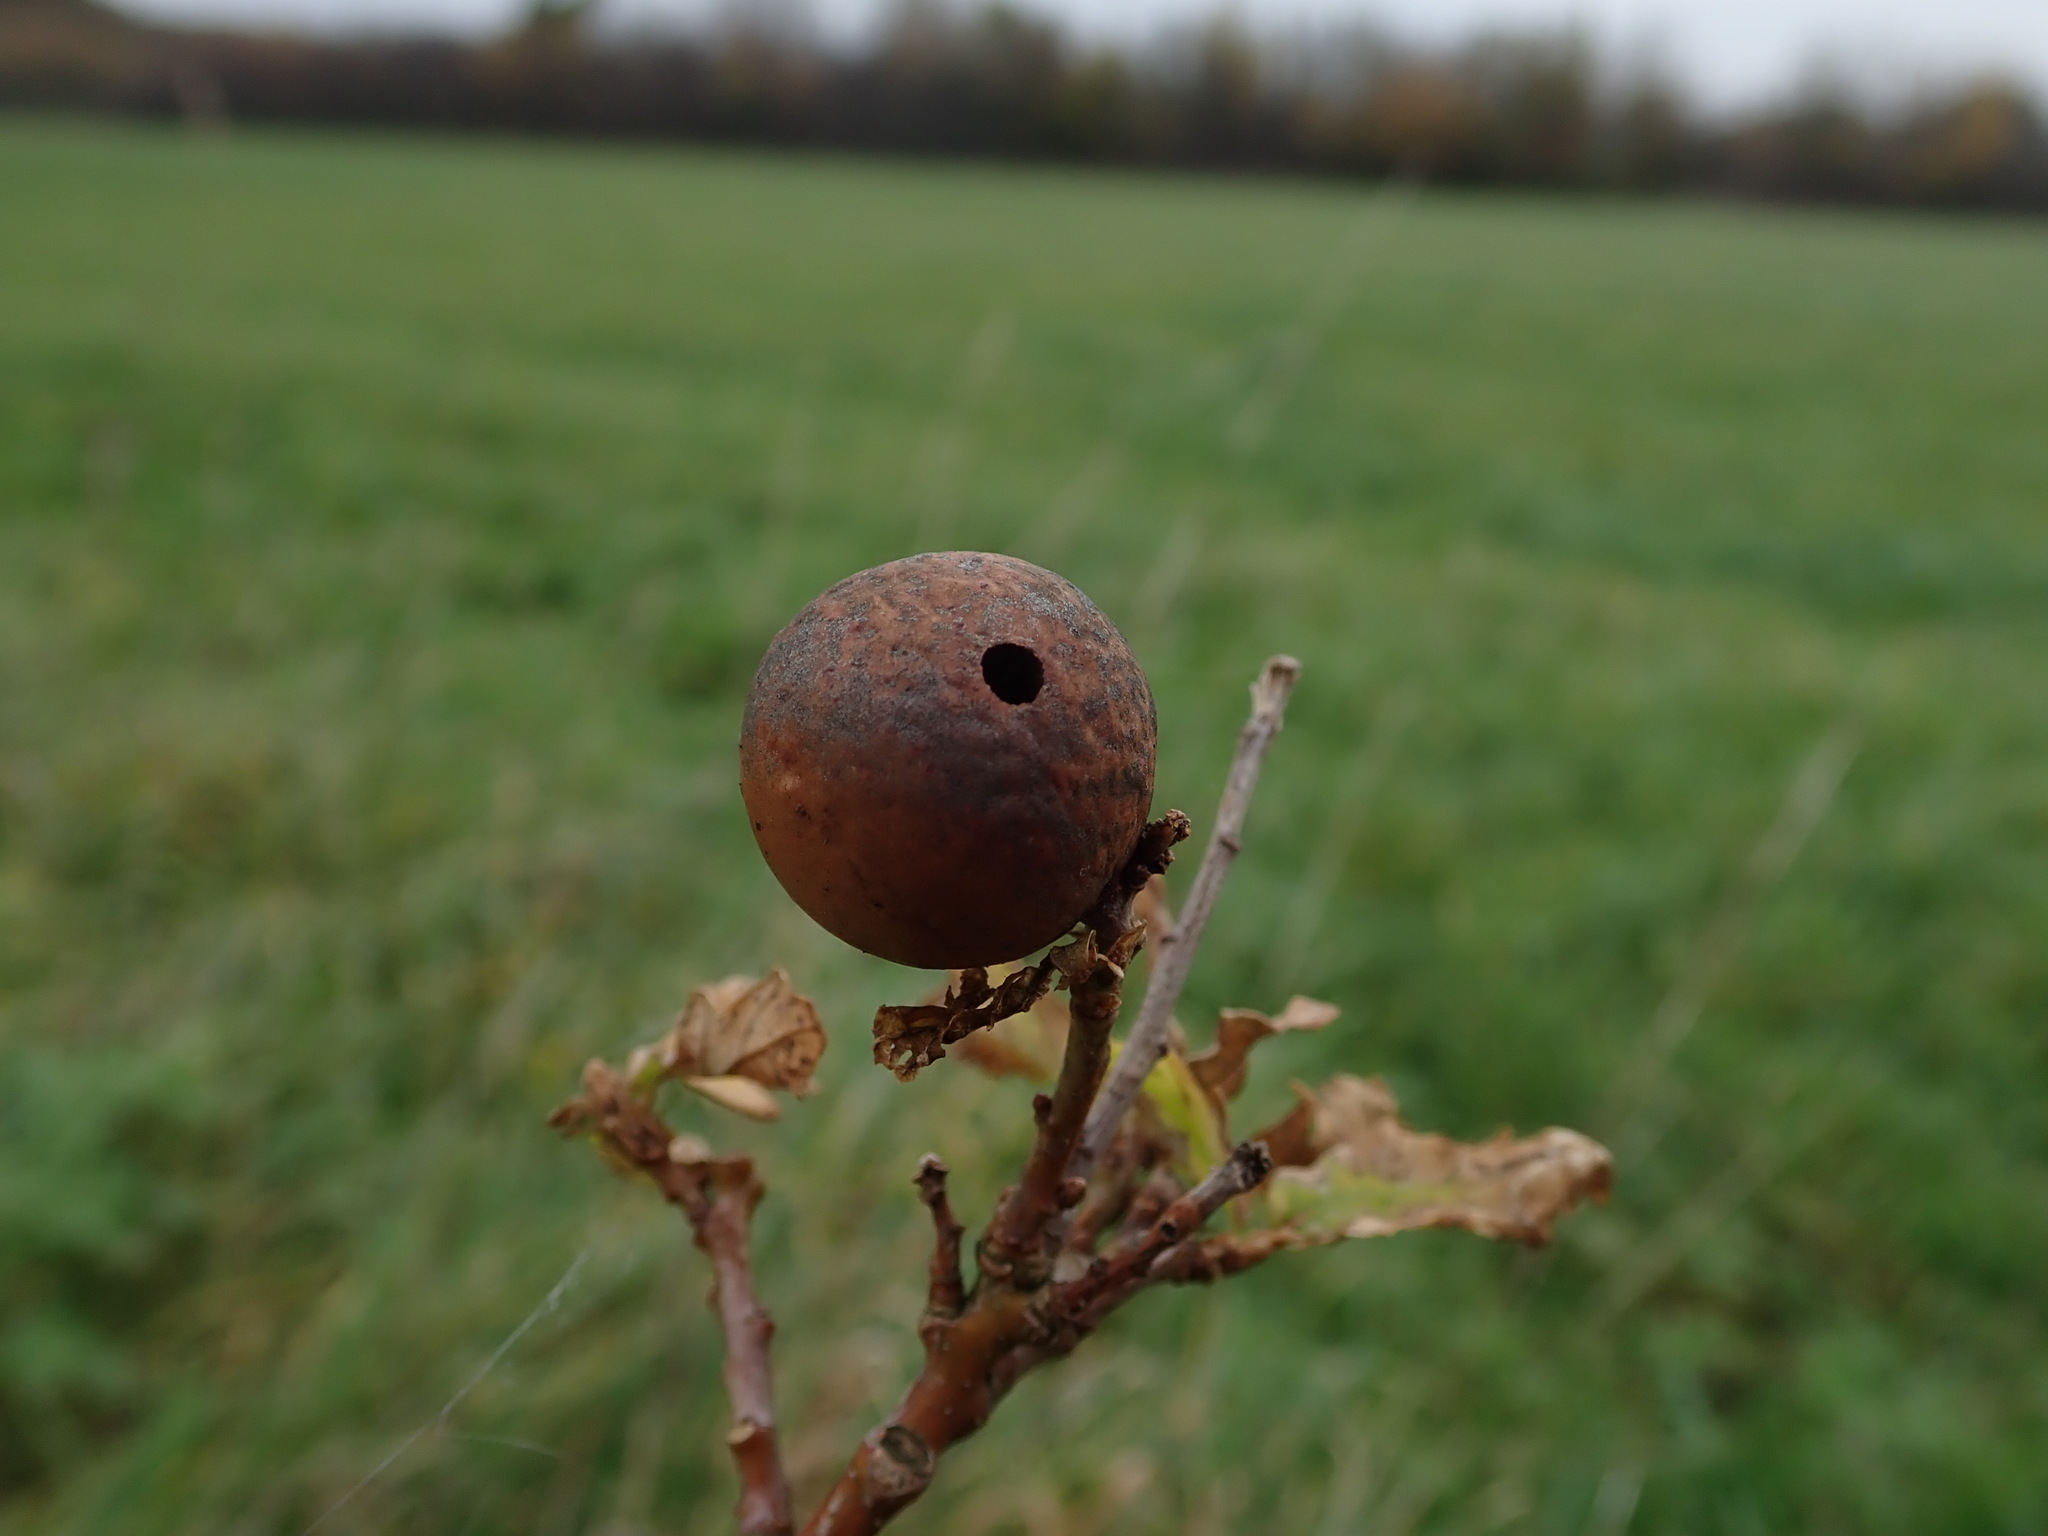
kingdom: Animalia
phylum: Arthropoda
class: Insecta
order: Hymenoptera
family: Cynipidae
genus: Andricus
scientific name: Andricus kollari
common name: Marble gall
